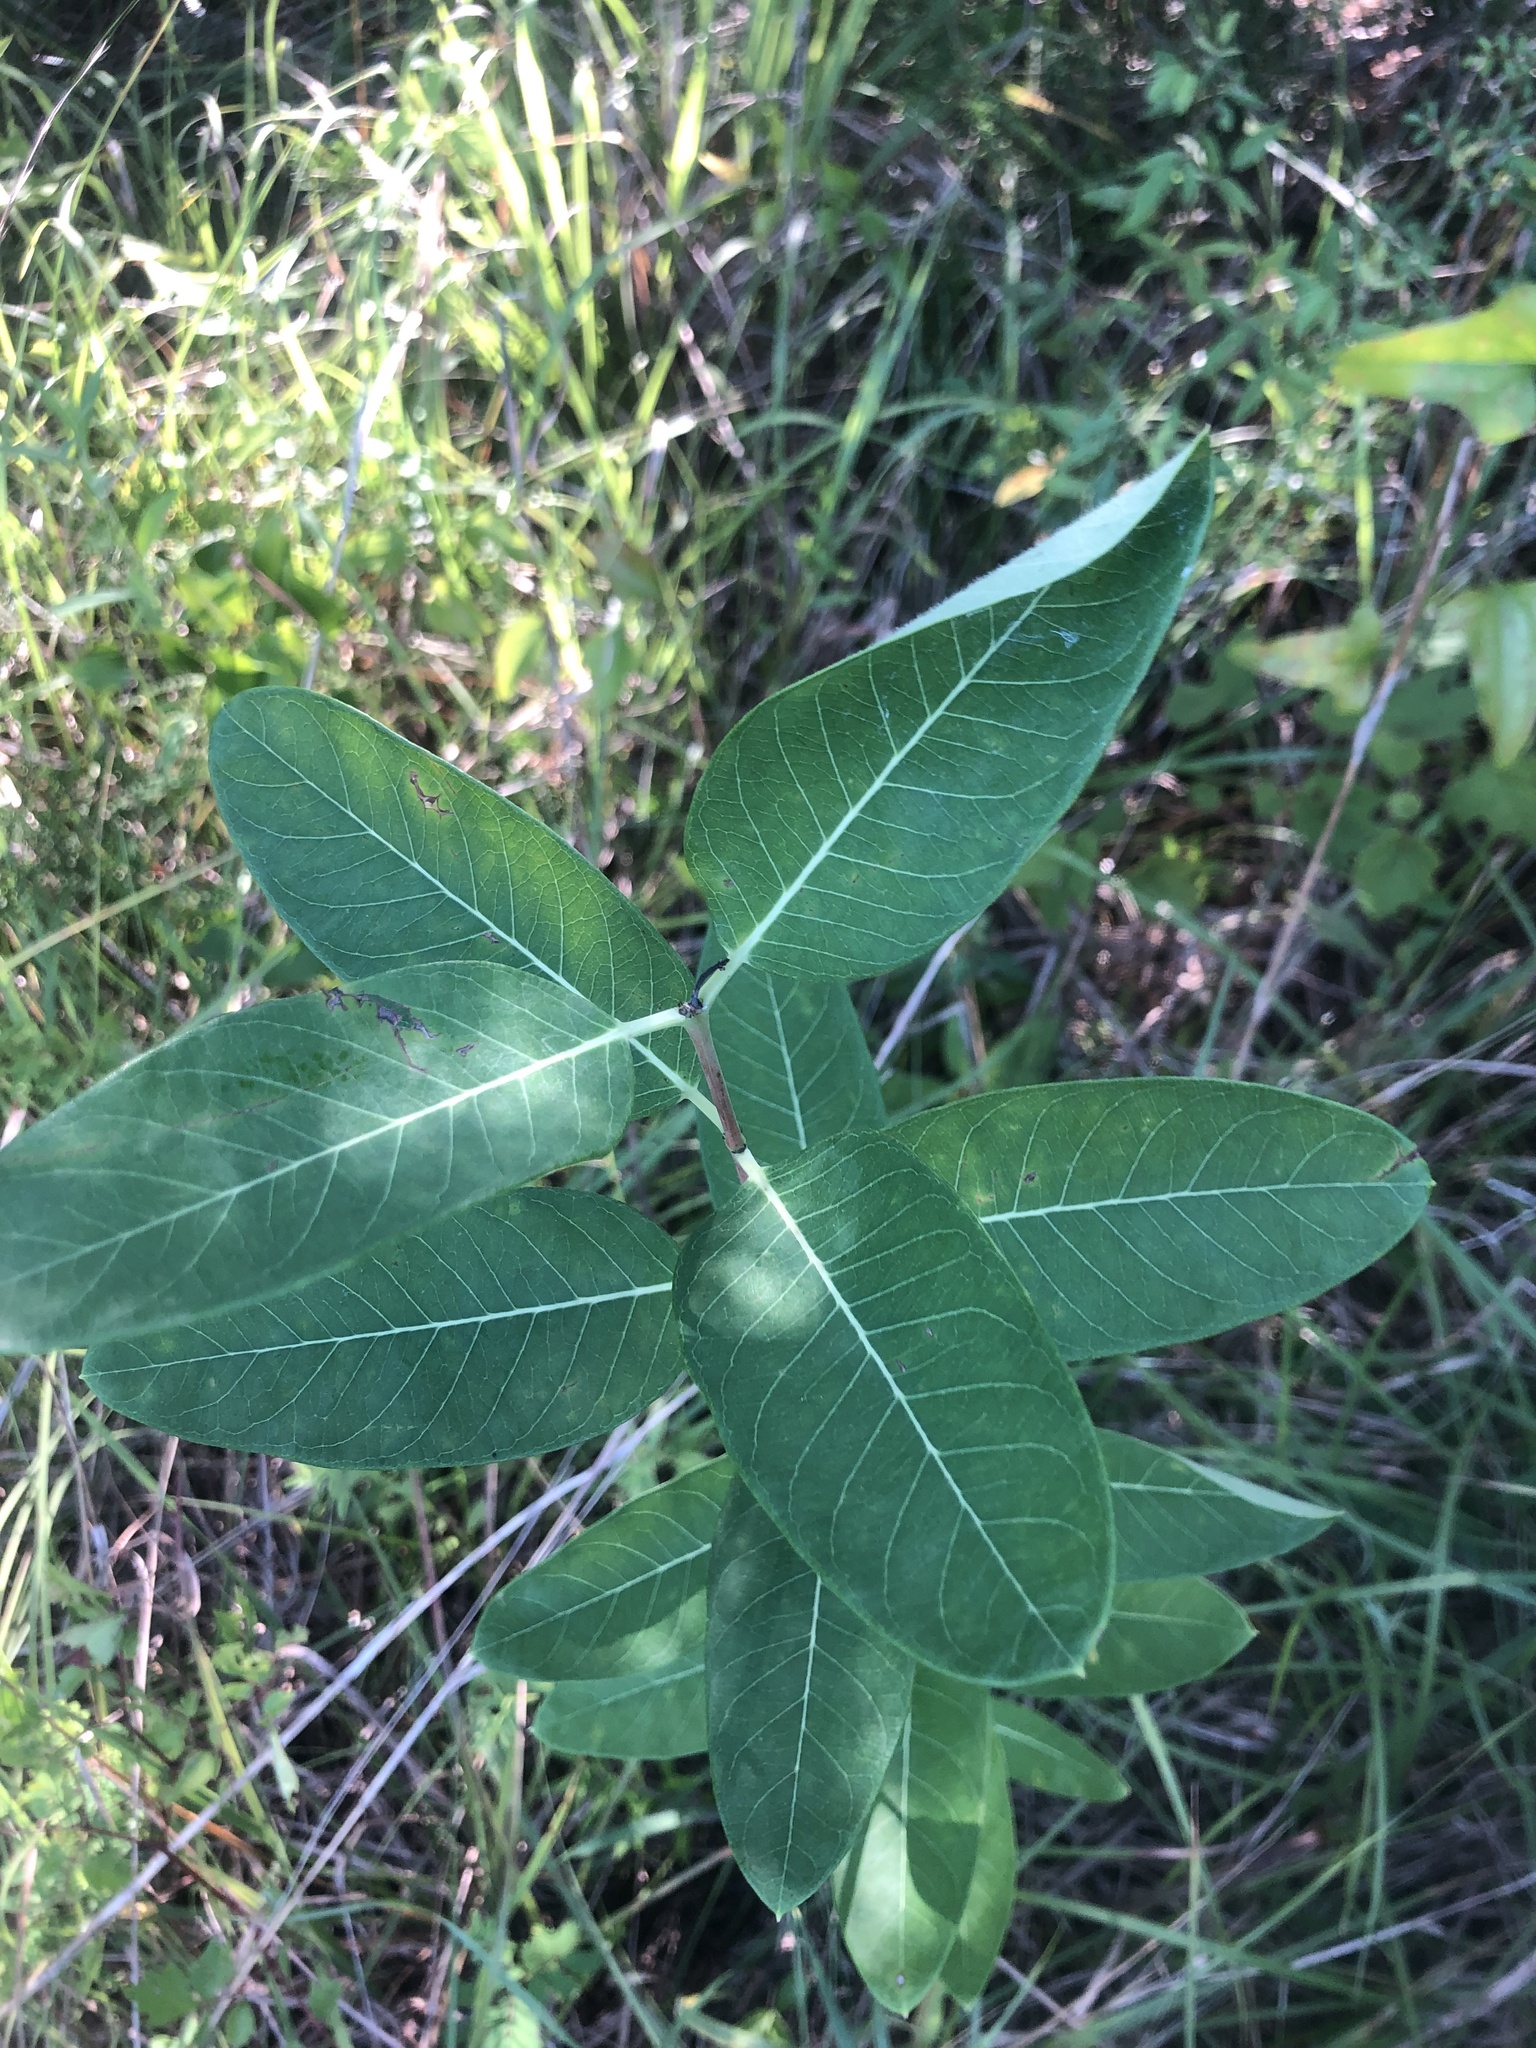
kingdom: Plantae
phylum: Tracheophyta
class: Magnoliopsida
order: Gentianales
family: Apocynaceae
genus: Apocynum
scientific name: Apocynum cannabinum
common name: Hemp dogbane
